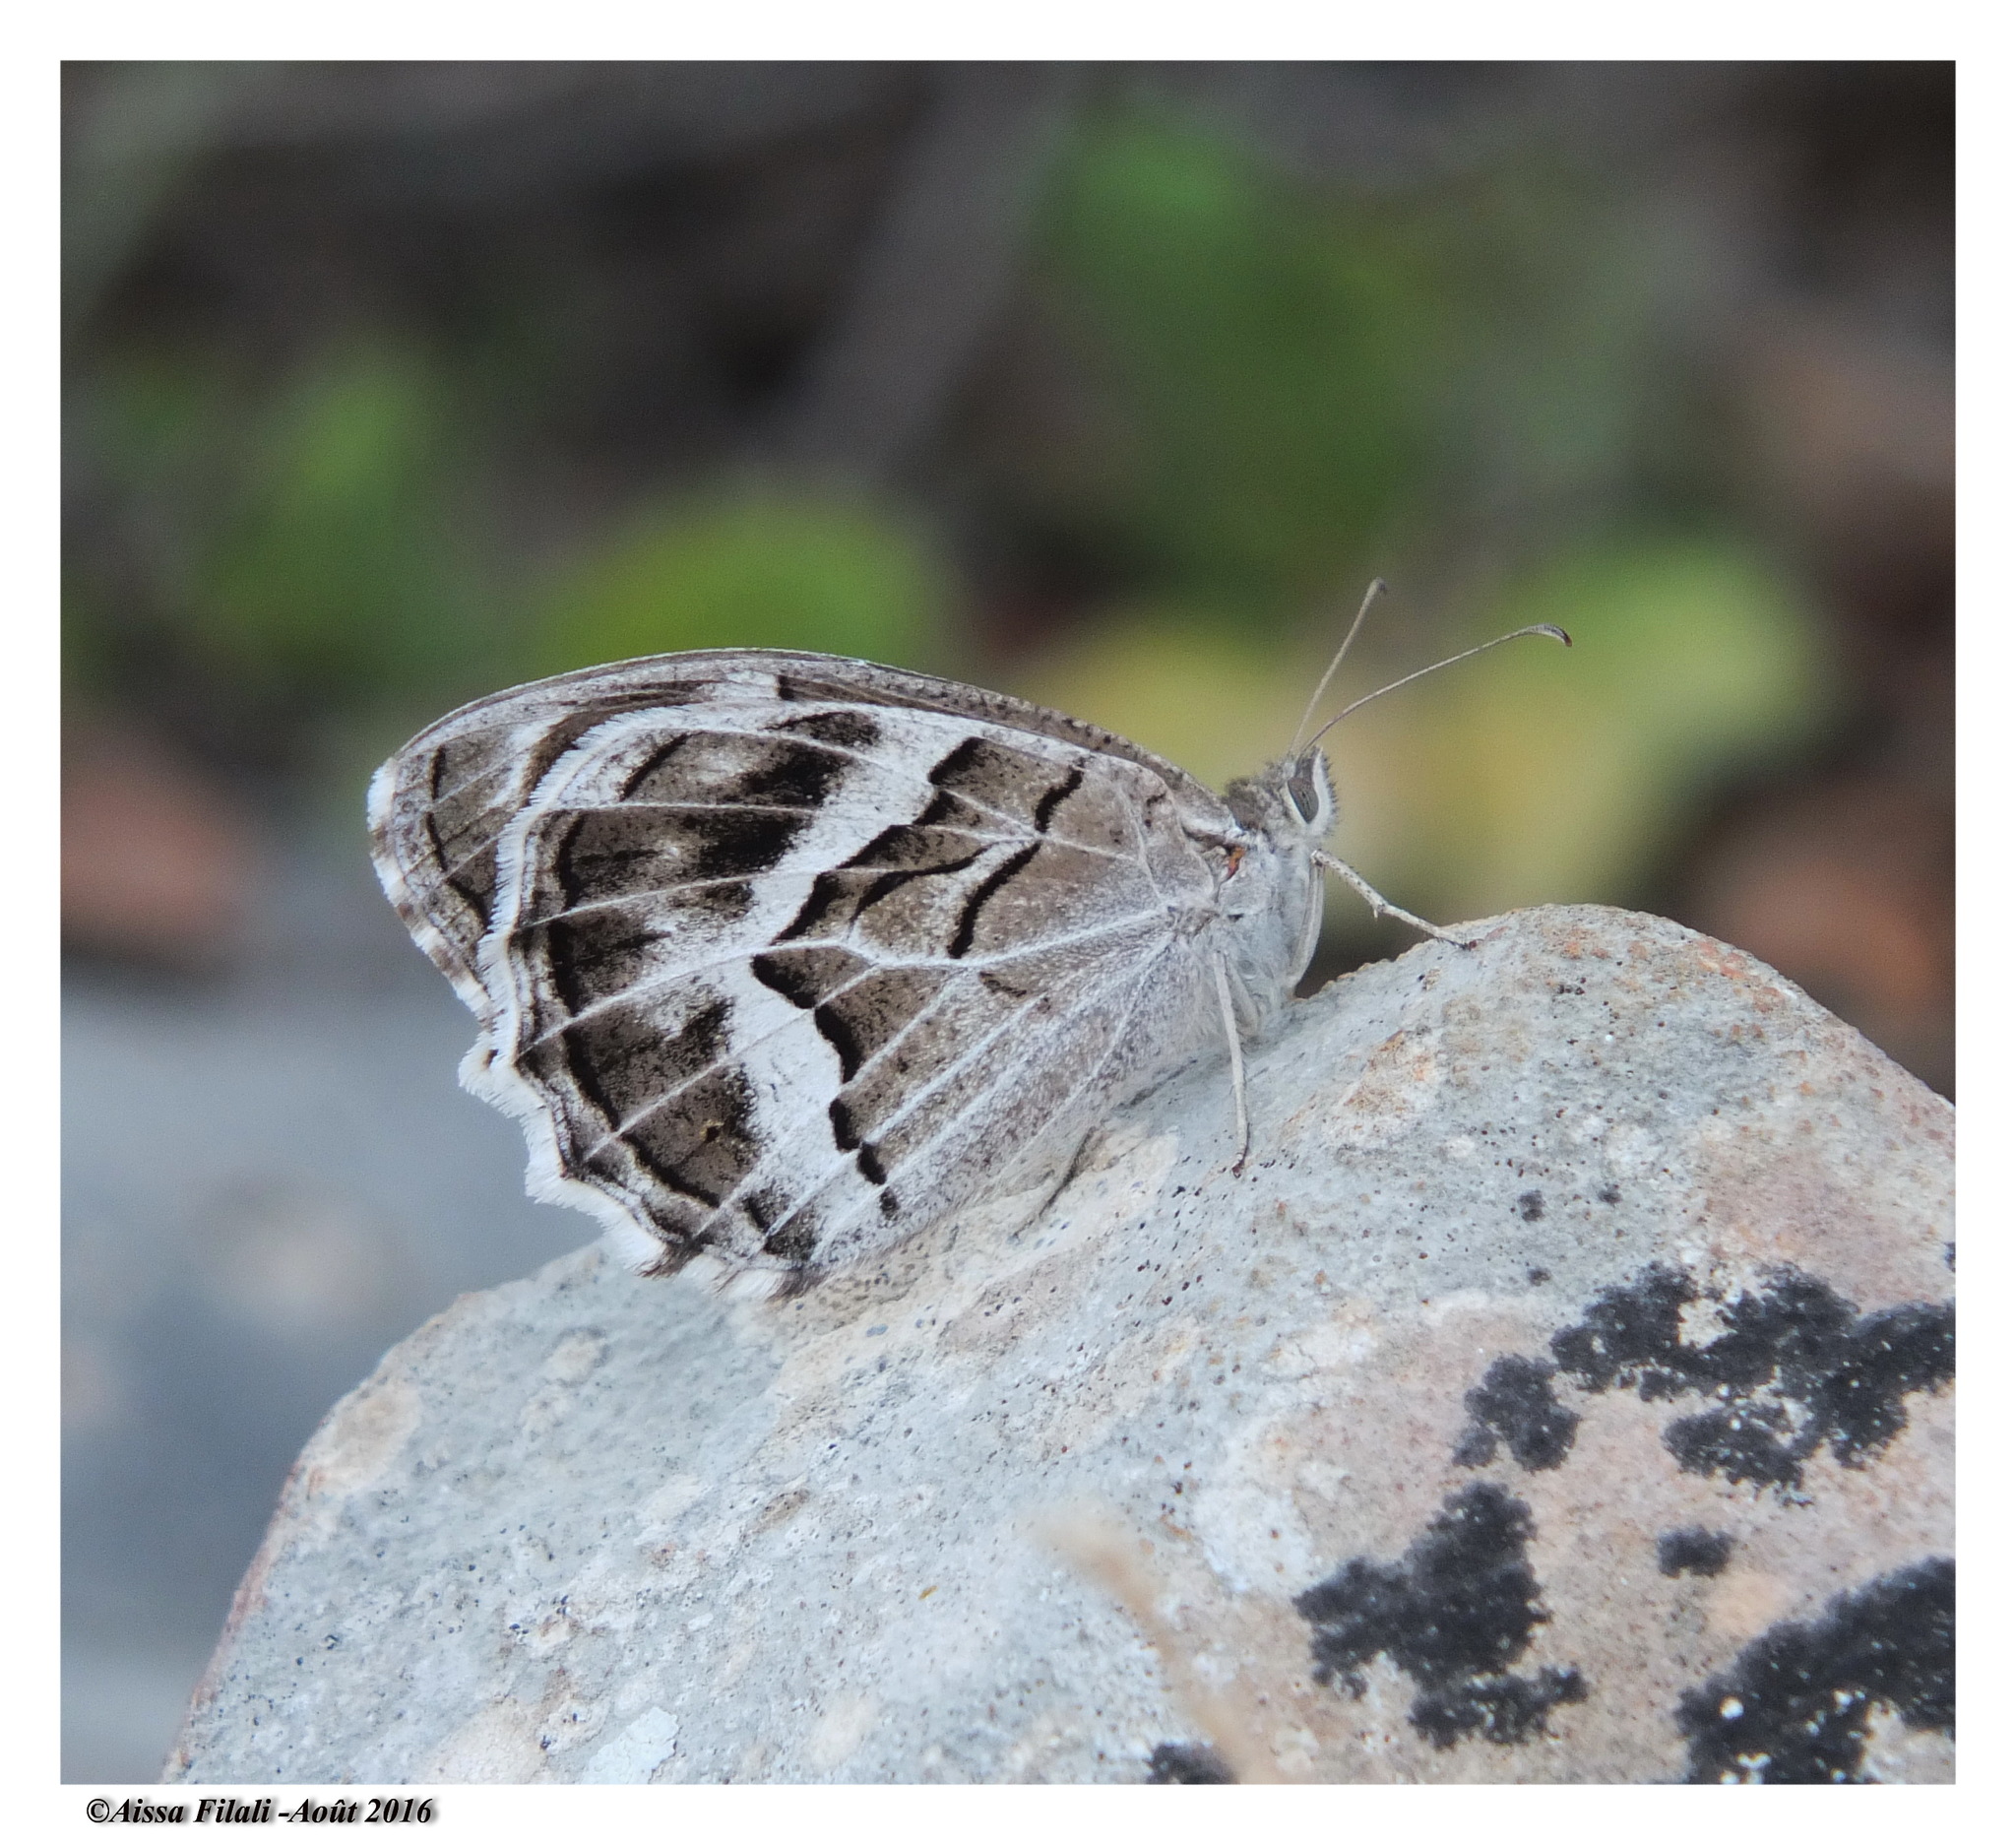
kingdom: Animalia
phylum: Arthropoda
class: Insecta
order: Lepidoptera
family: Nymphalidae
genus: Hipparchia
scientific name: Hipparchia fidia
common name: Striped grayling
